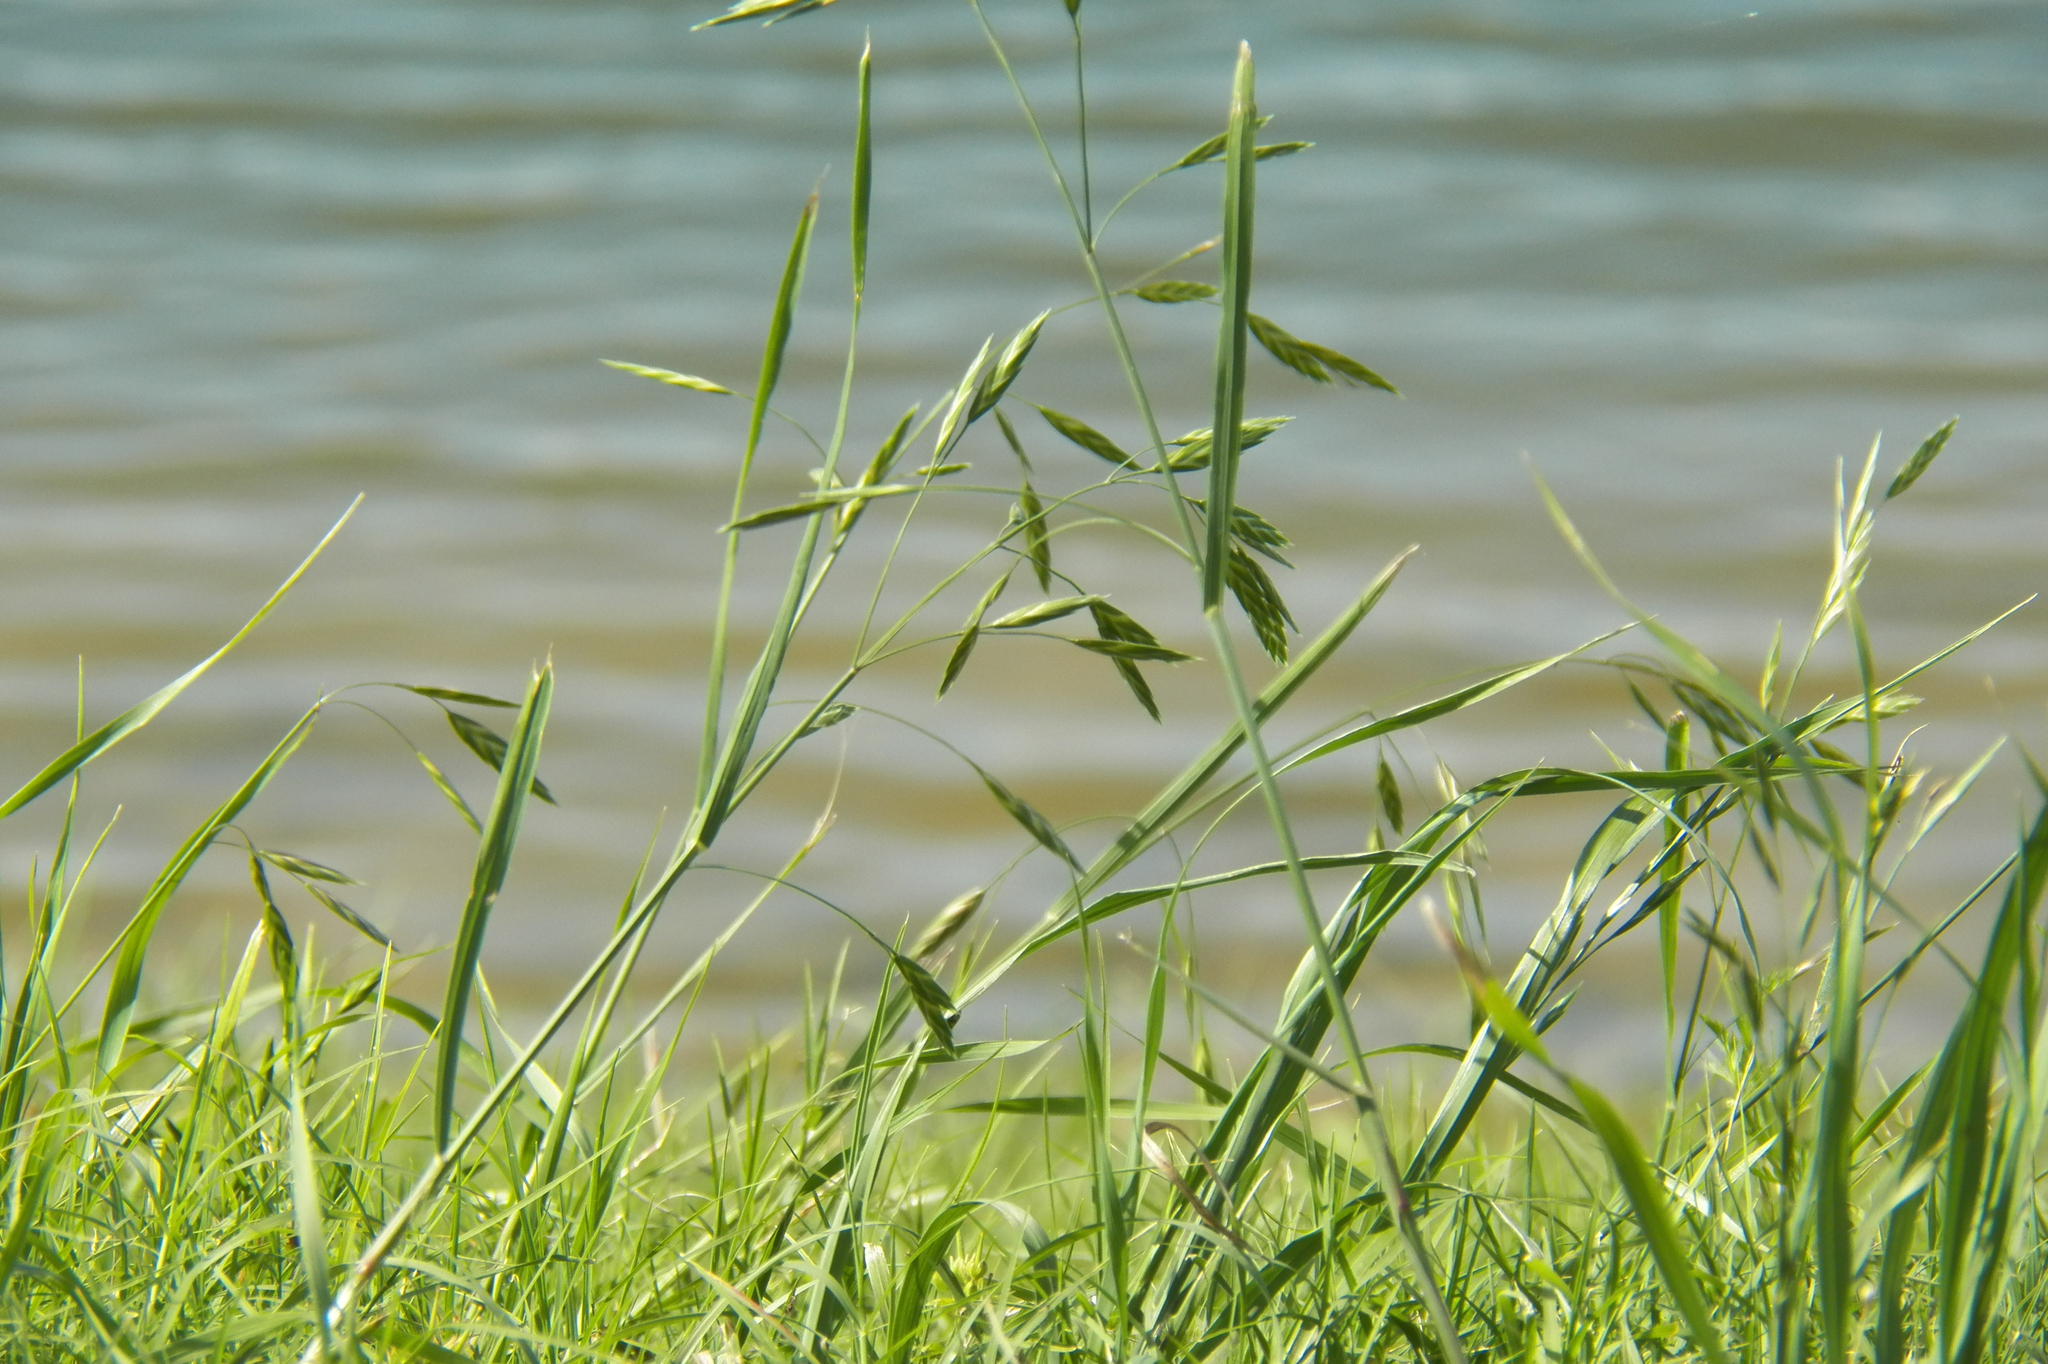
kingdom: Plantae
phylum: Tracheophyta
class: Liliopsida
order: Poales
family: Poaceae
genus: Bromus
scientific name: Bromus catharticus
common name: Rescuegrass
